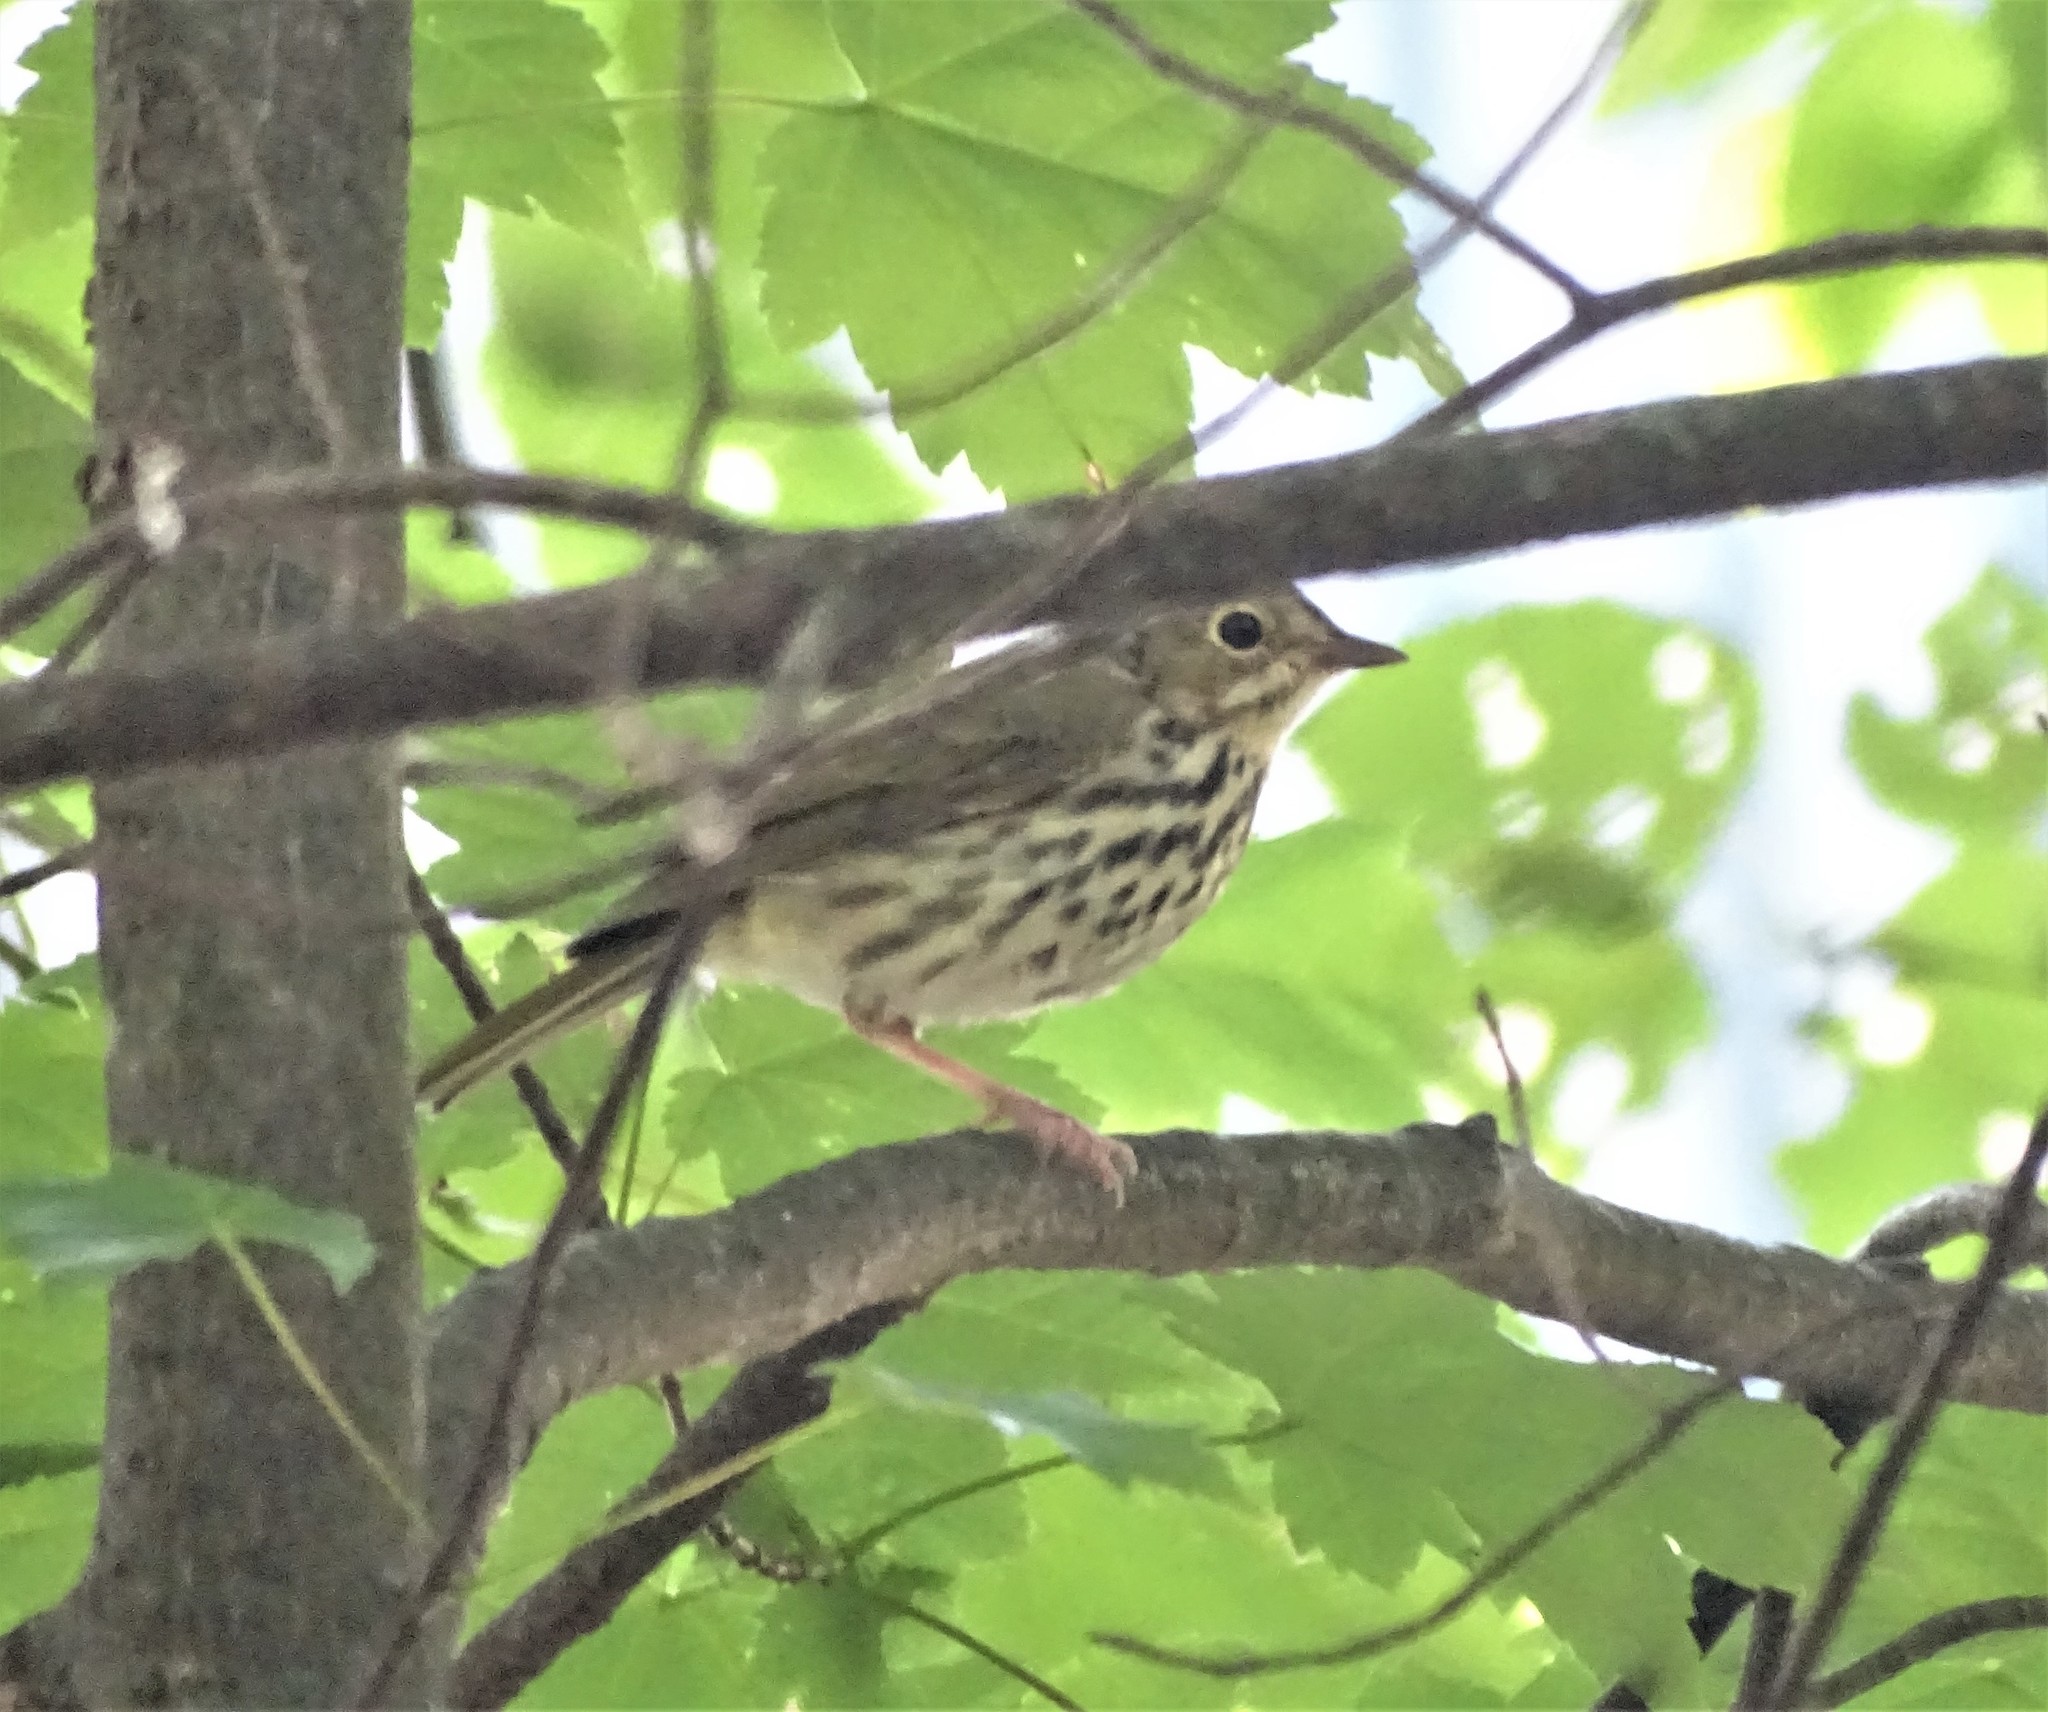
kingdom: Animalia
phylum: Chordata
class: Aves
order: Passeriformes
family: Parulidae
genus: Seiurus
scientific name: Seiurus aurocapilla
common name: Ovenbird
